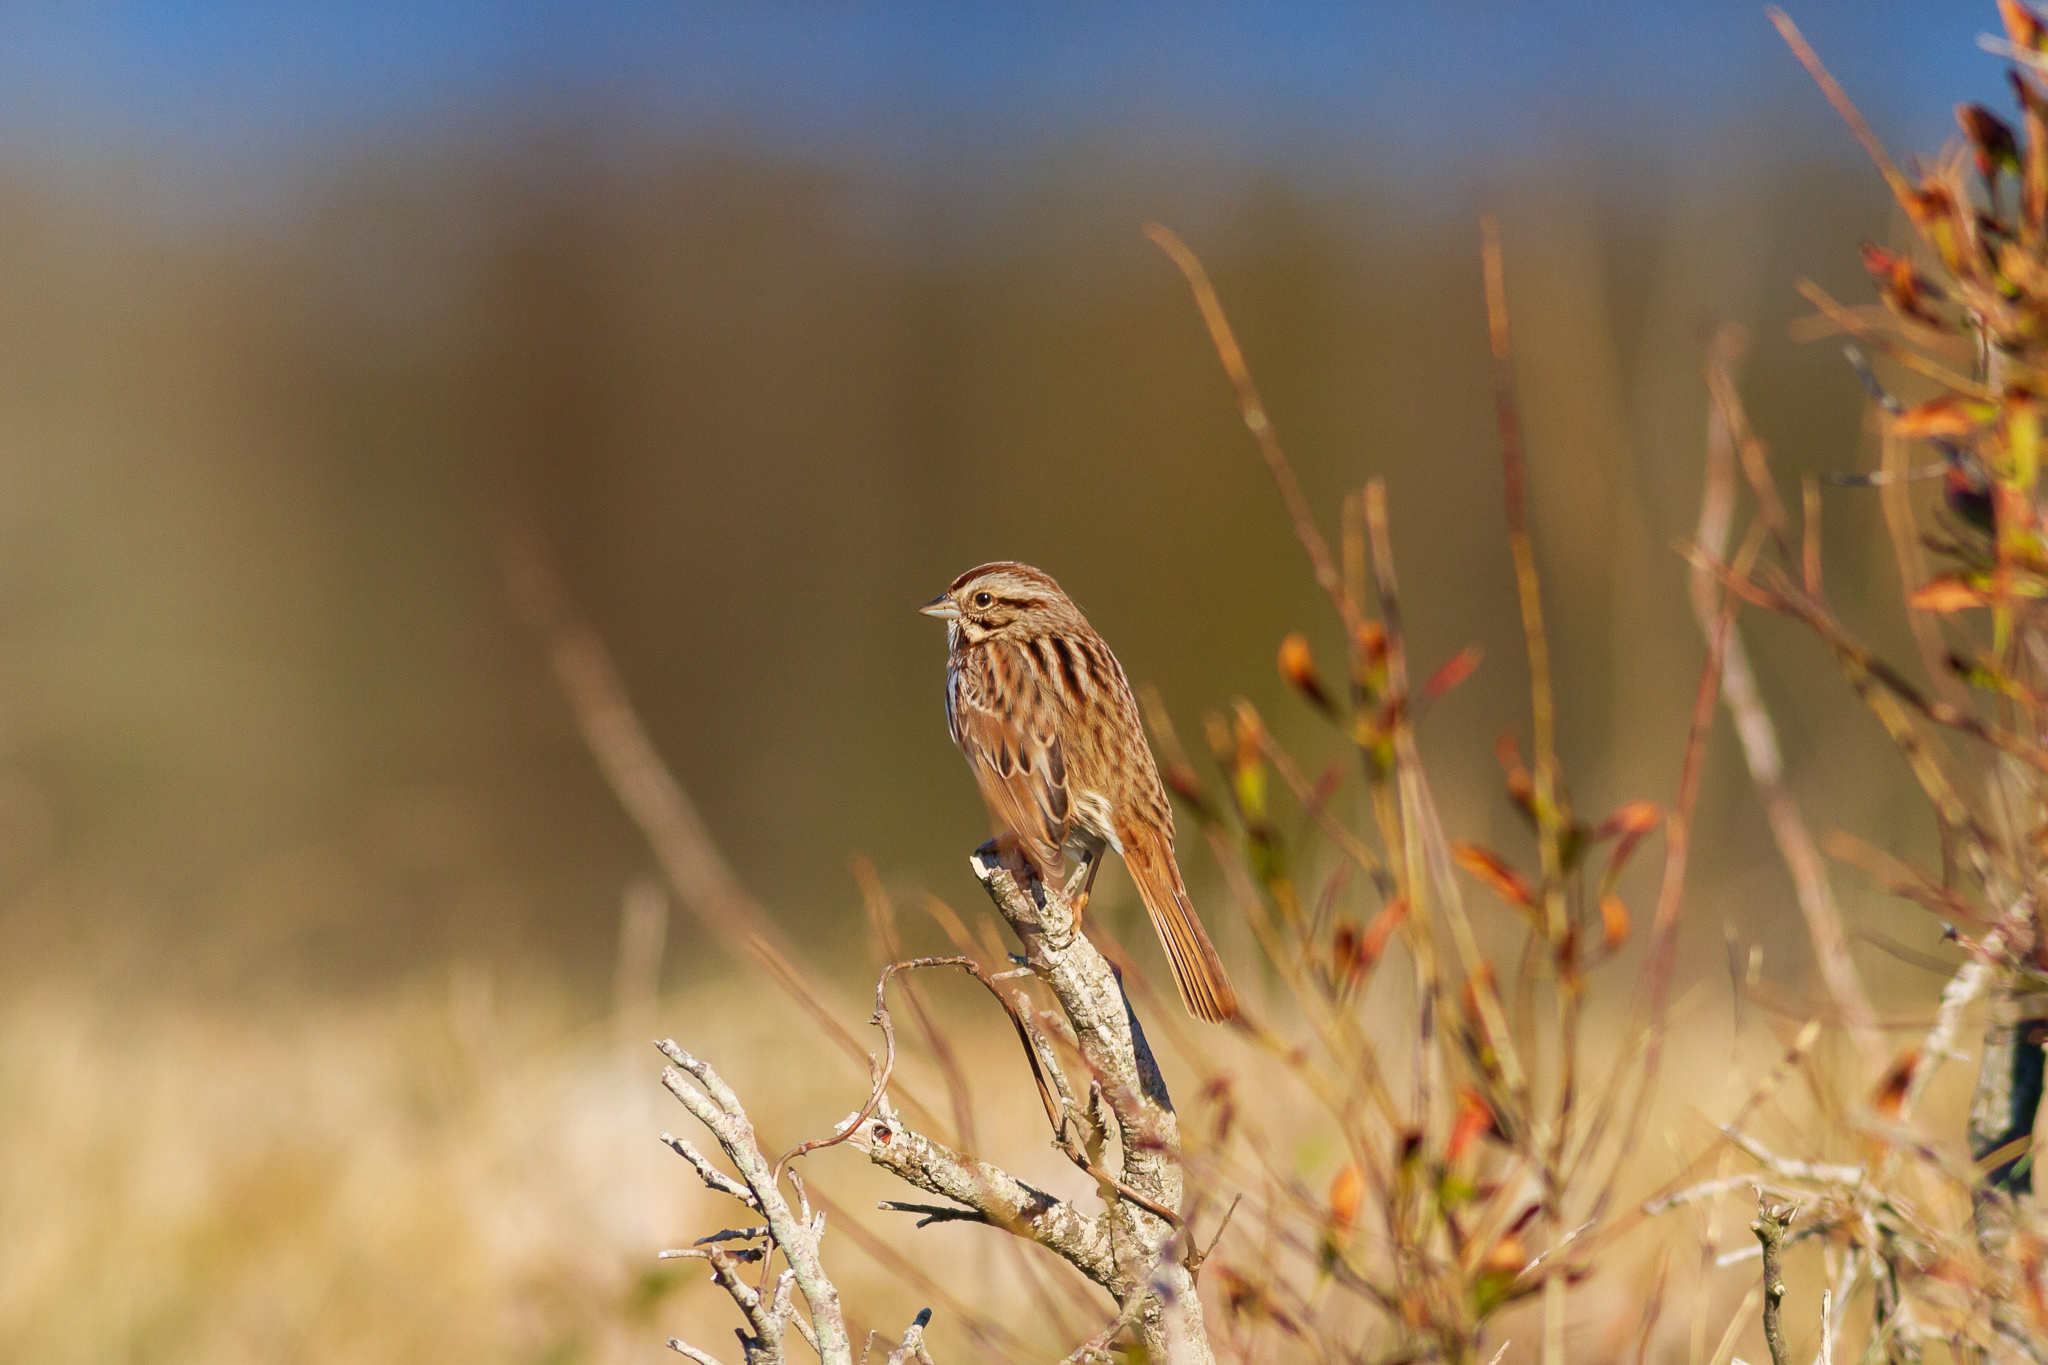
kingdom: Animalia
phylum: Chordata
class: Aves
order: Passeriformes
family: Passerellidae
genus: Melospiza
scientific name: Melospiza melodia
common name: Song sparrow
